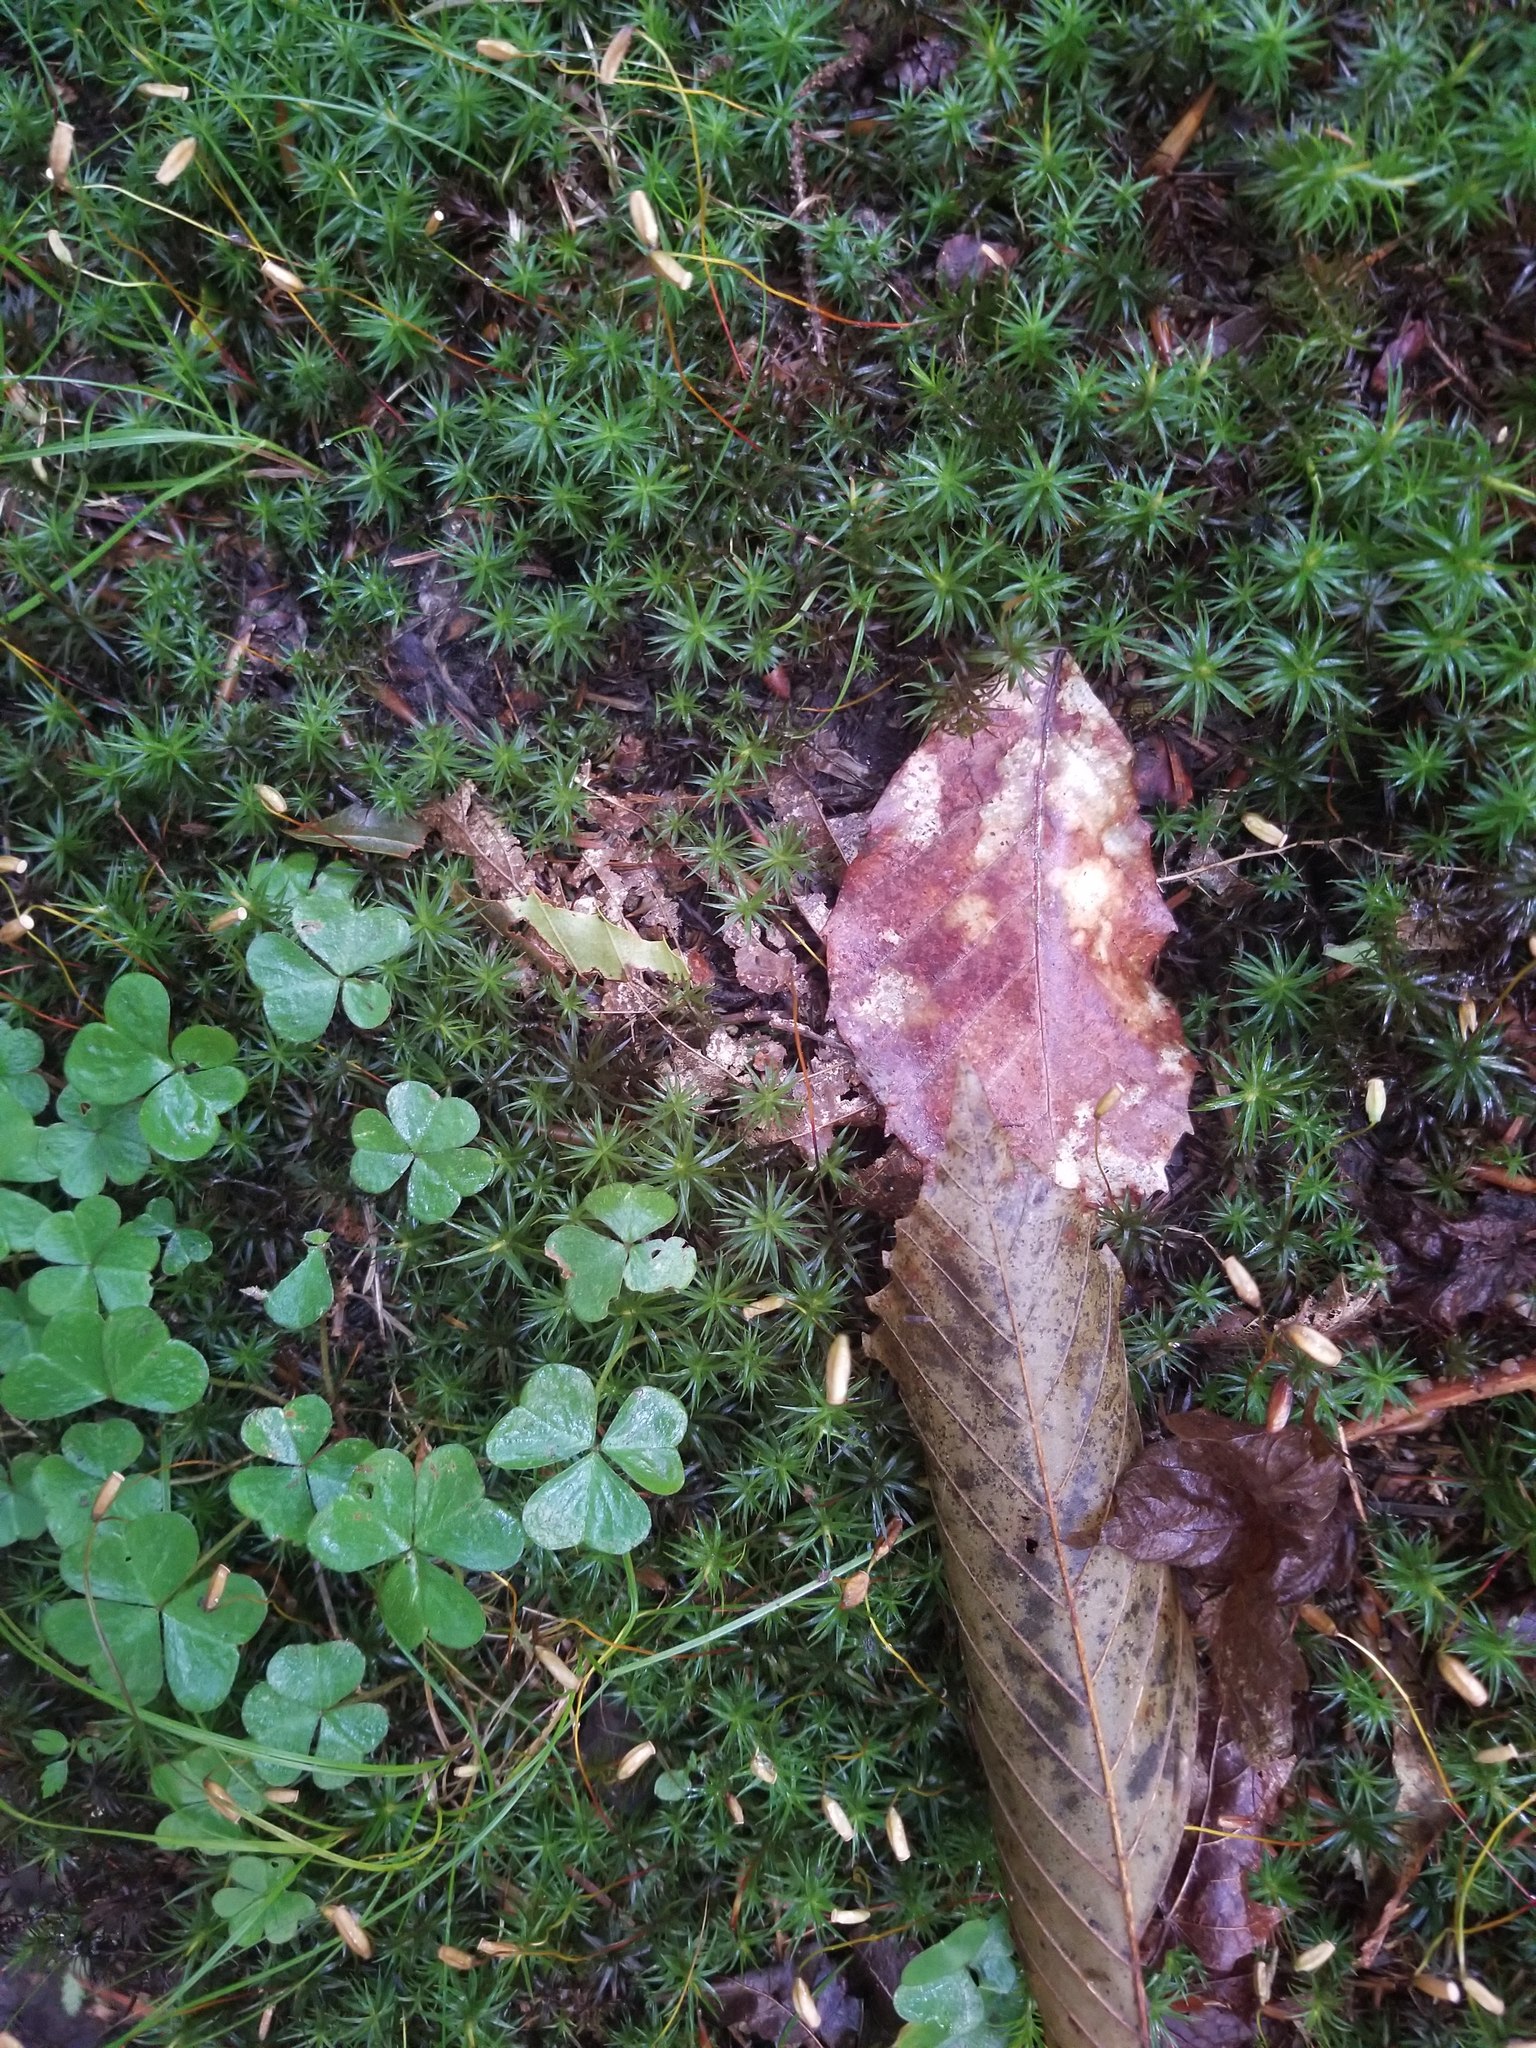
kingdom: Plantae
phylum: Tracheophyta
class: Magnoliopsida
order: Oxalidales
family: Oxalidaceae
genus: Oxalis
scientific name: Oxalis montana
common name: American wood-sorrel
